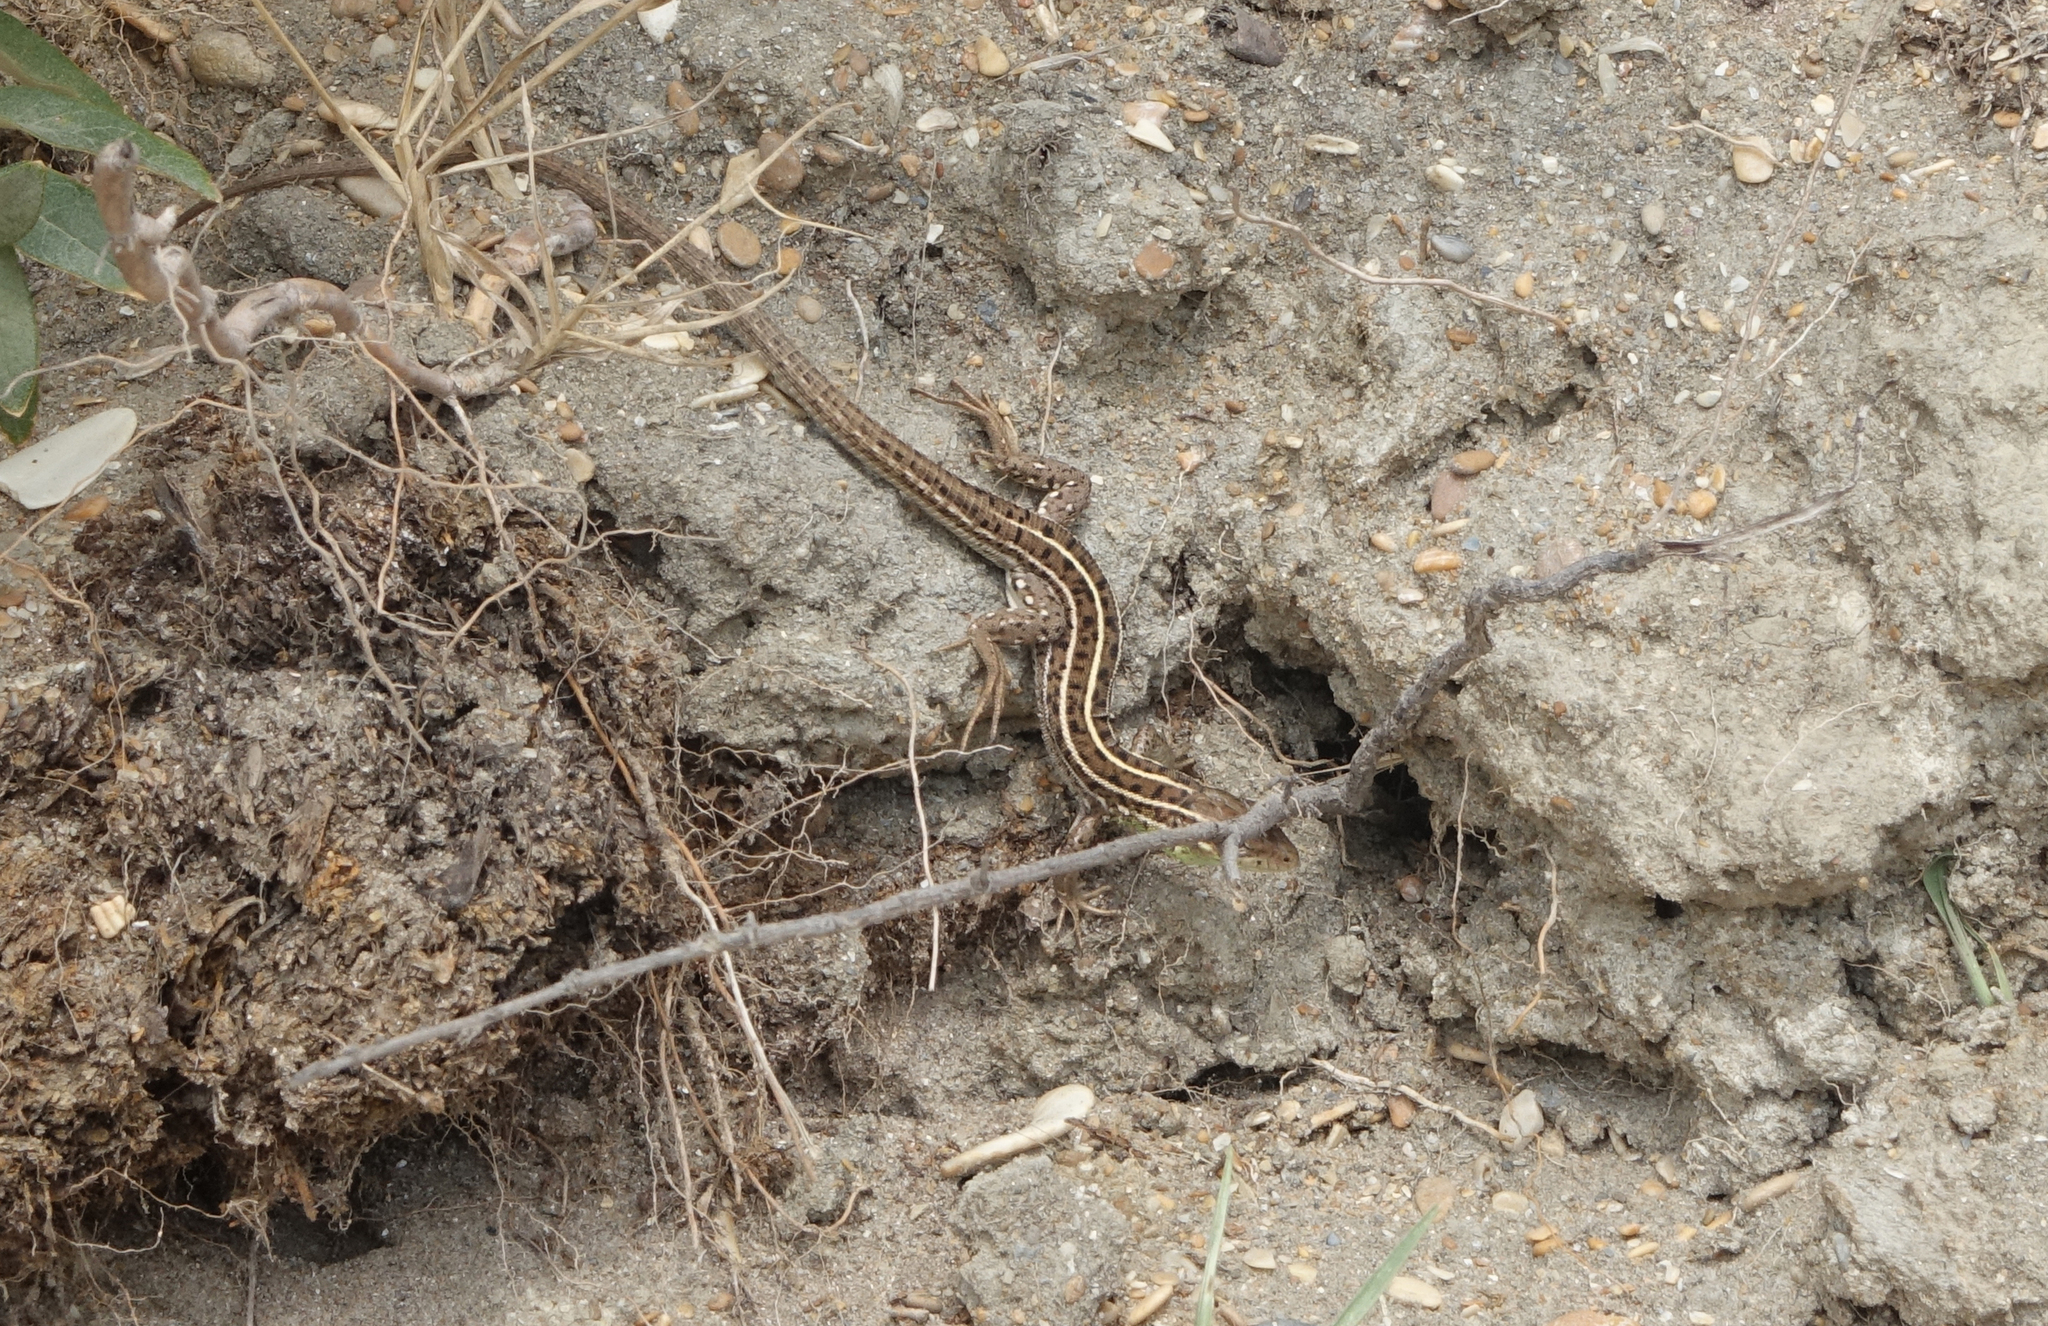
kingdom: Animalia
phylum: Chordata
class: Squamata
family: Lacertidae
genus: Lacerta
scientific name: Lacerta strigata
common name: Caspian green lizard
